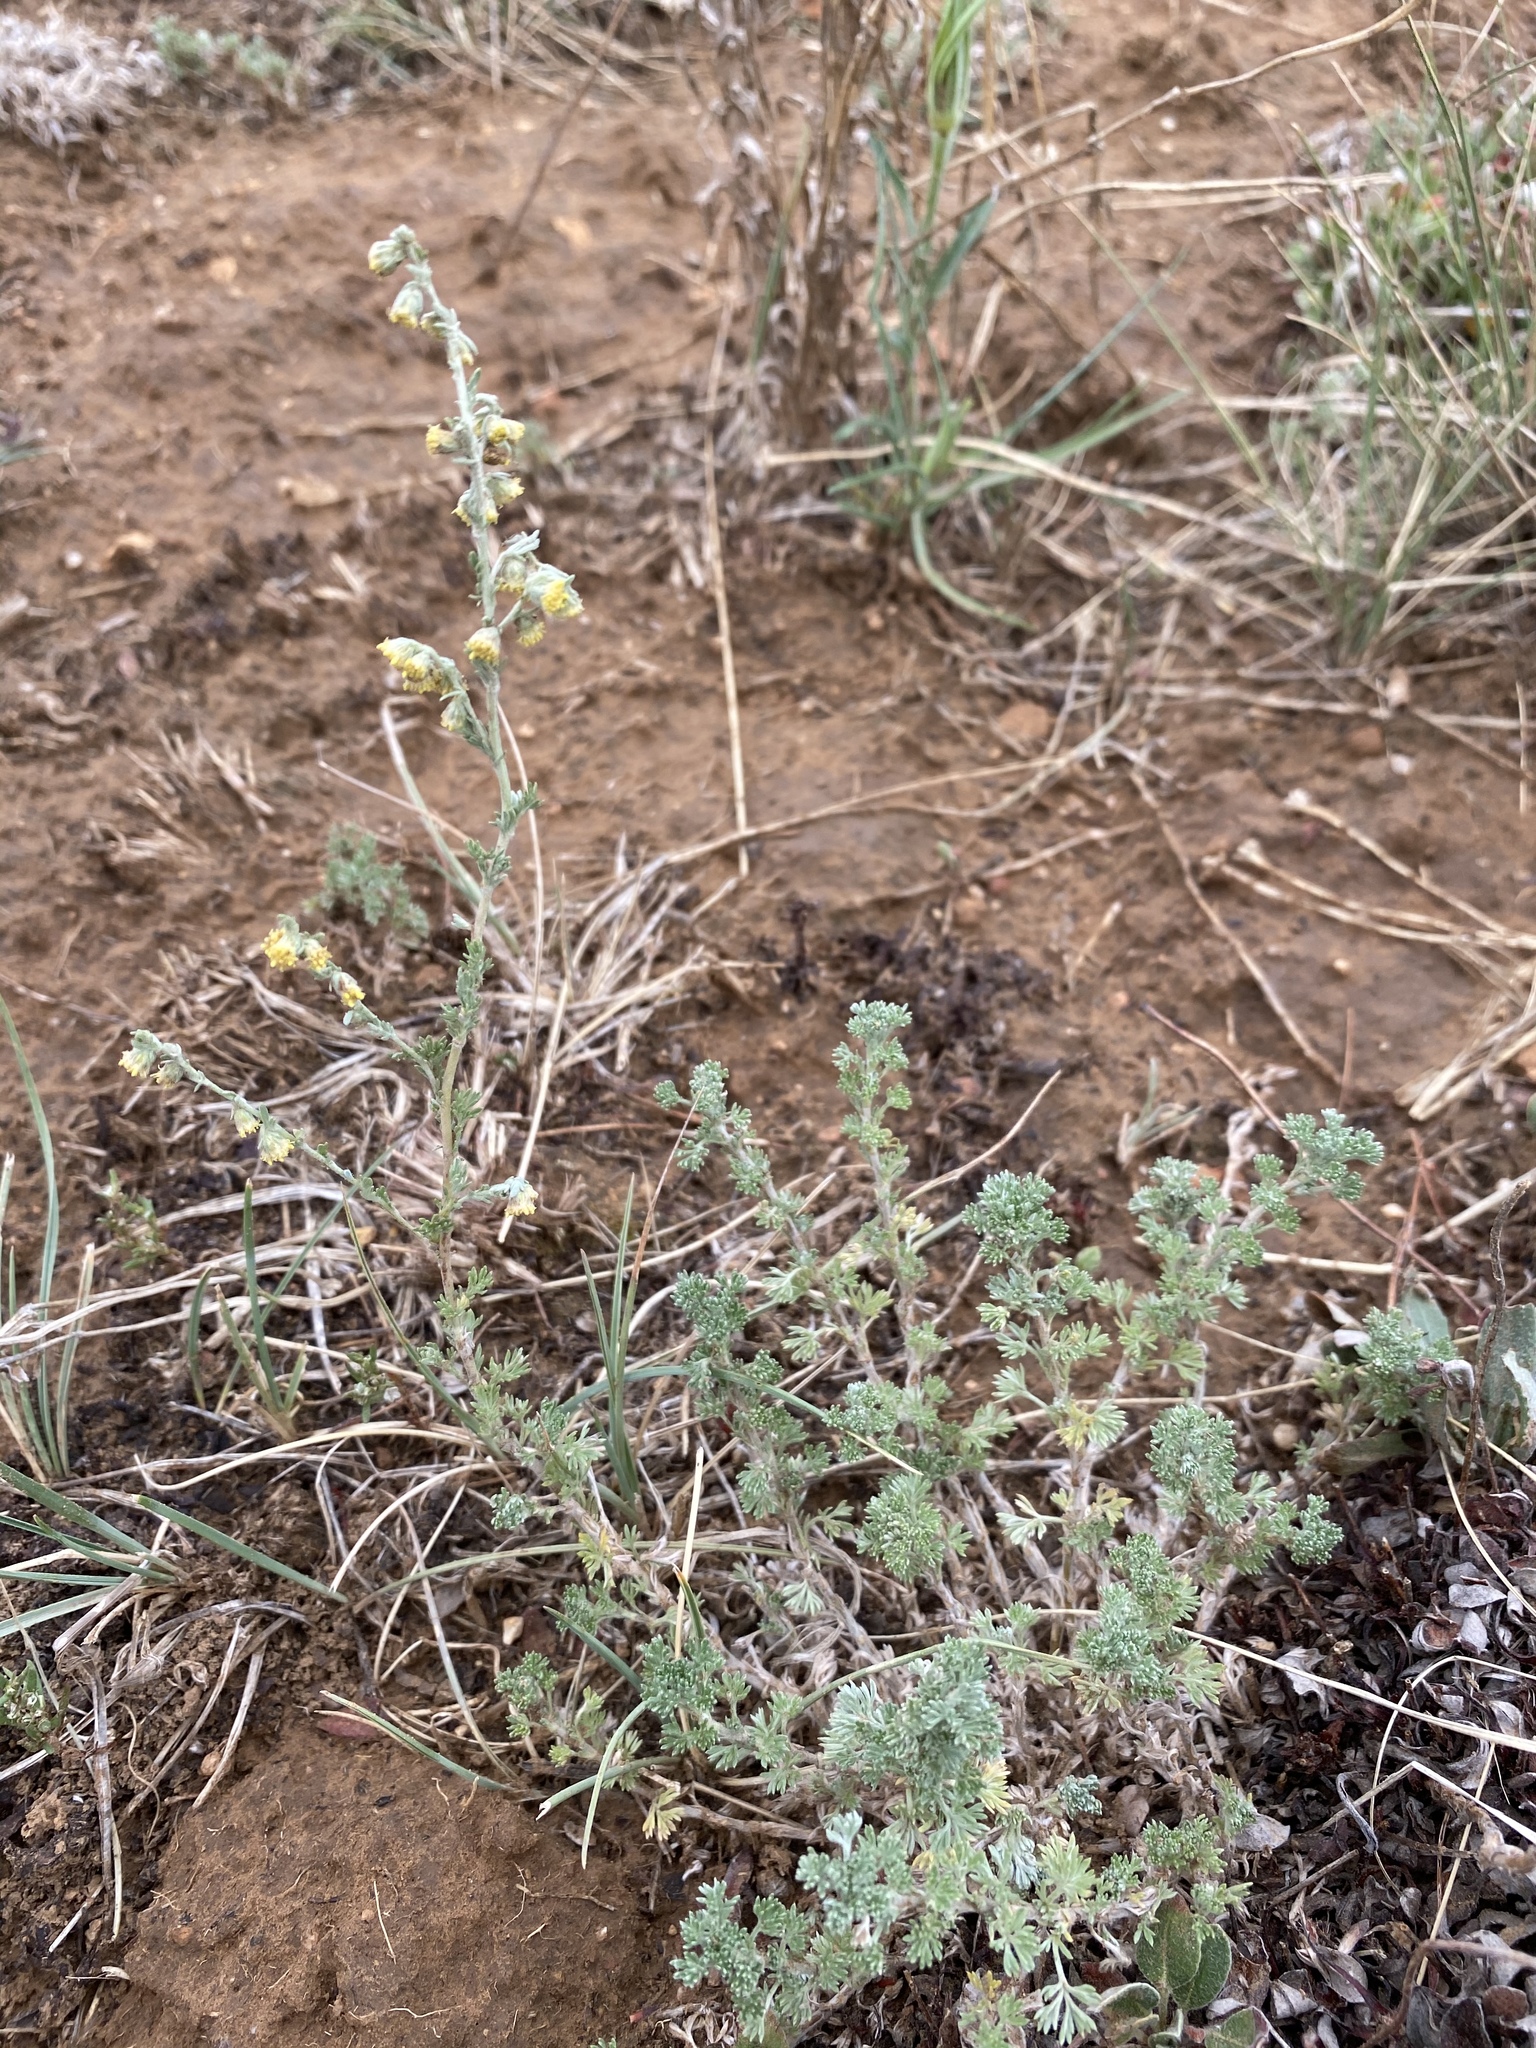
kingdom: Plantae
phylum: Tracheophyta
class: Magnoliopsida
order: Asterales
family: Asteraceae
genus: Artemisia
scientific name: Artemisia frigida
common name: Prairie sagewort
